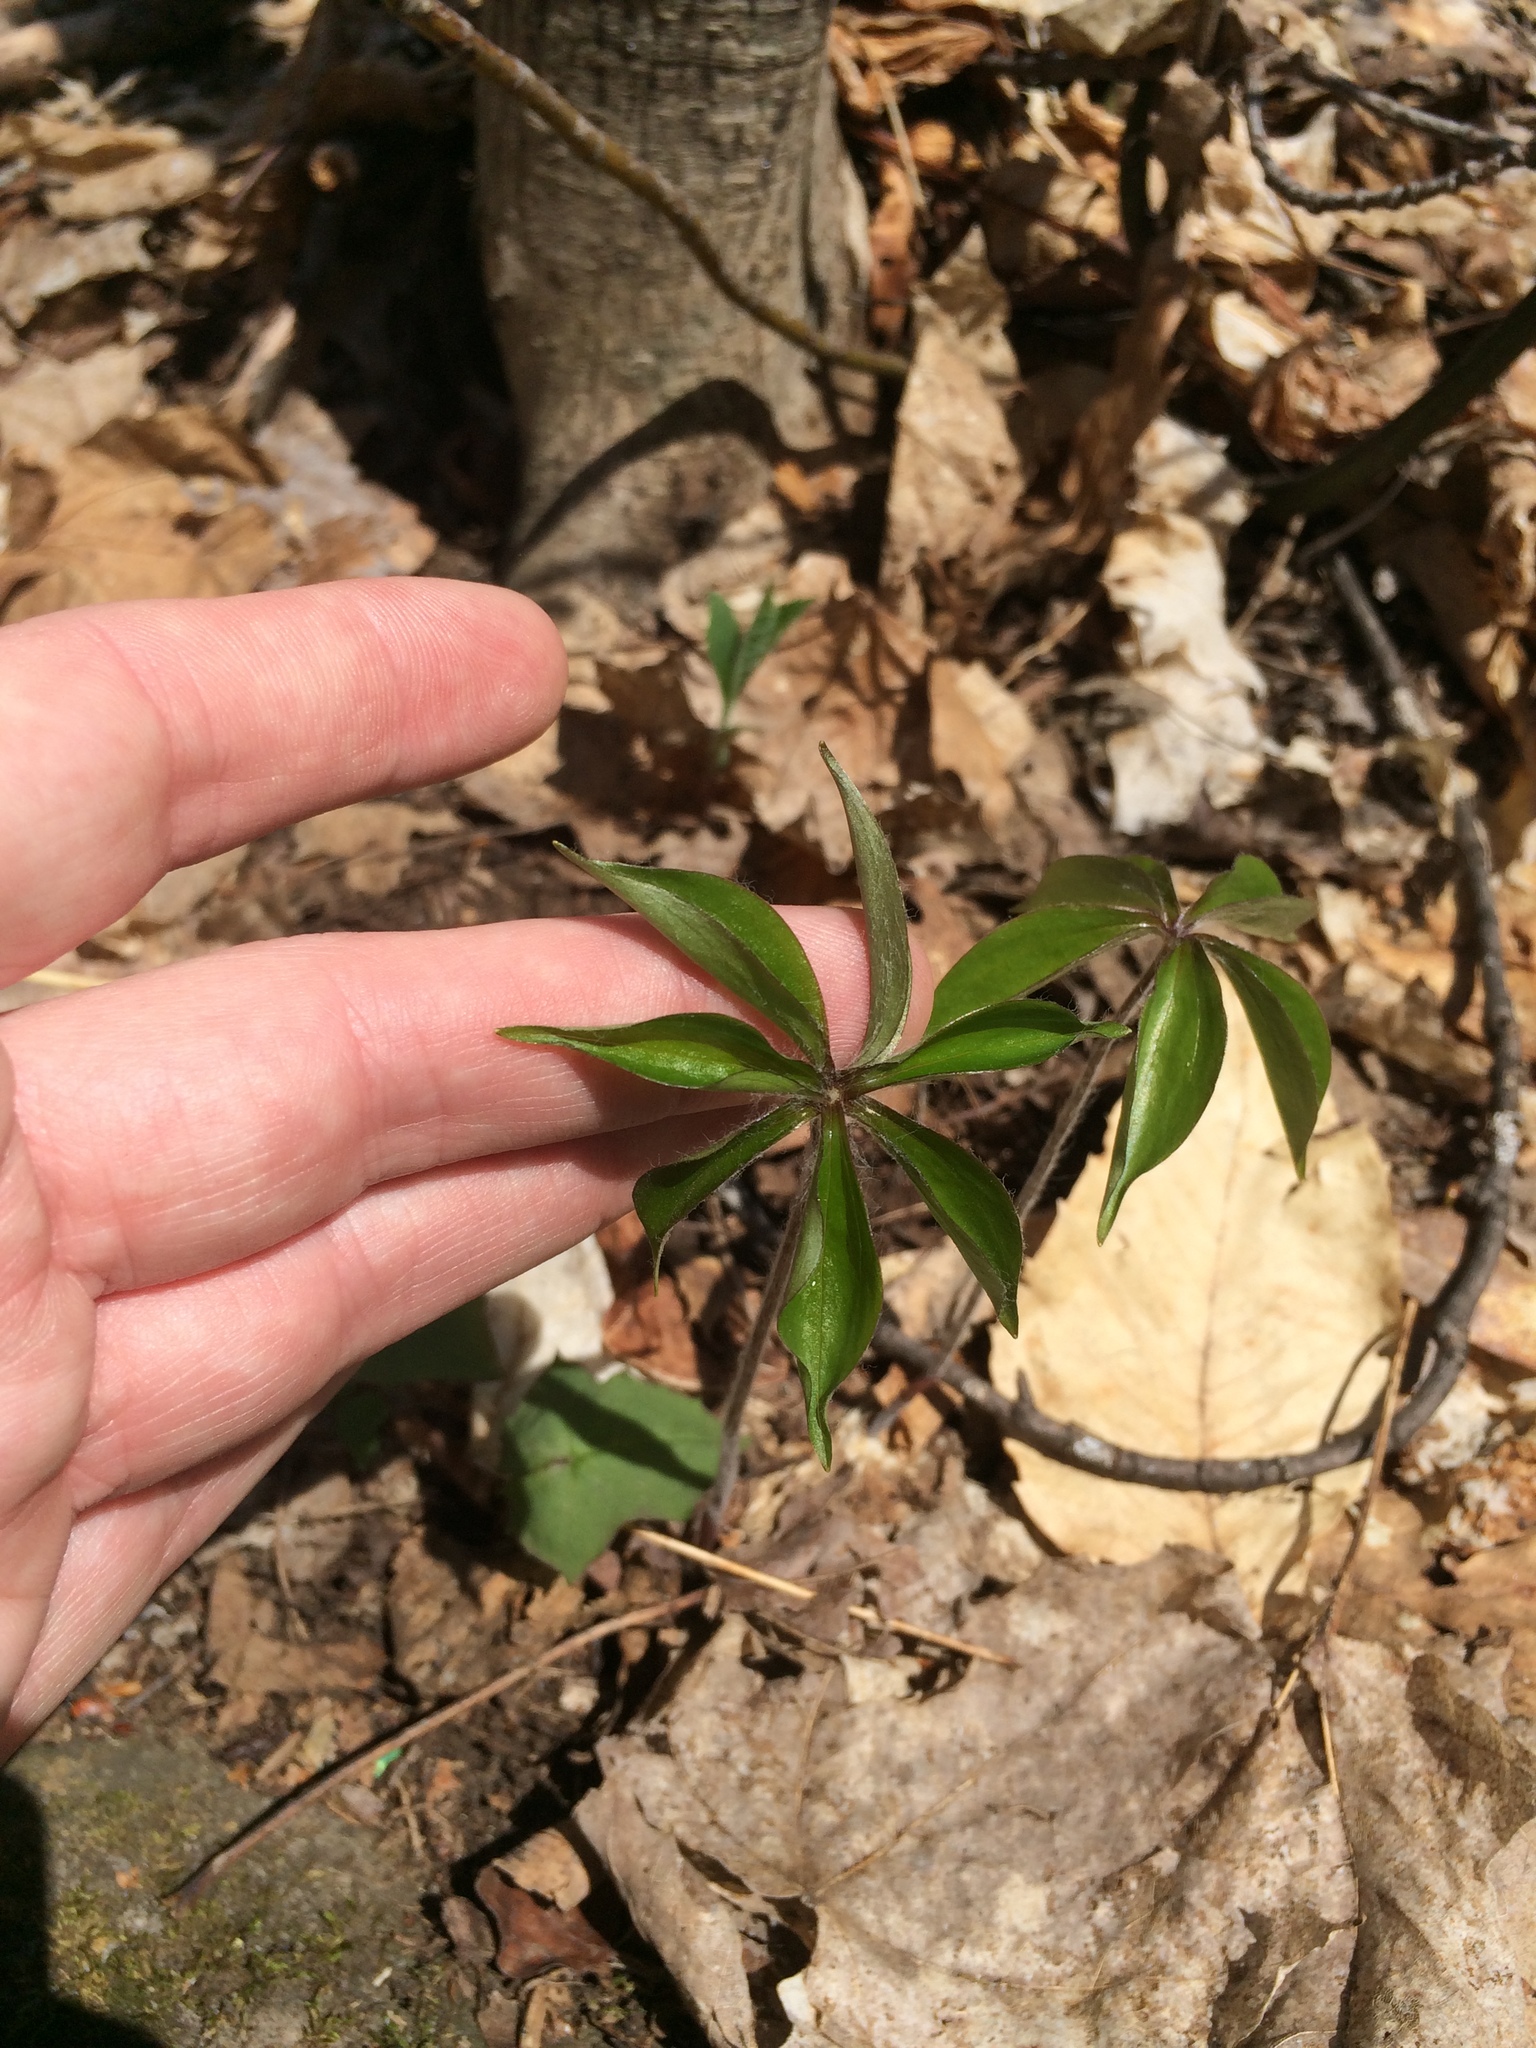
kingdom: Plantae
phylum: Tracheophyta
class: Liliopsida
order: Liliales
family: Liliaceae
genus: Medeola
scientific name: Medeola virginiana
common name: Indian cucumber-root
